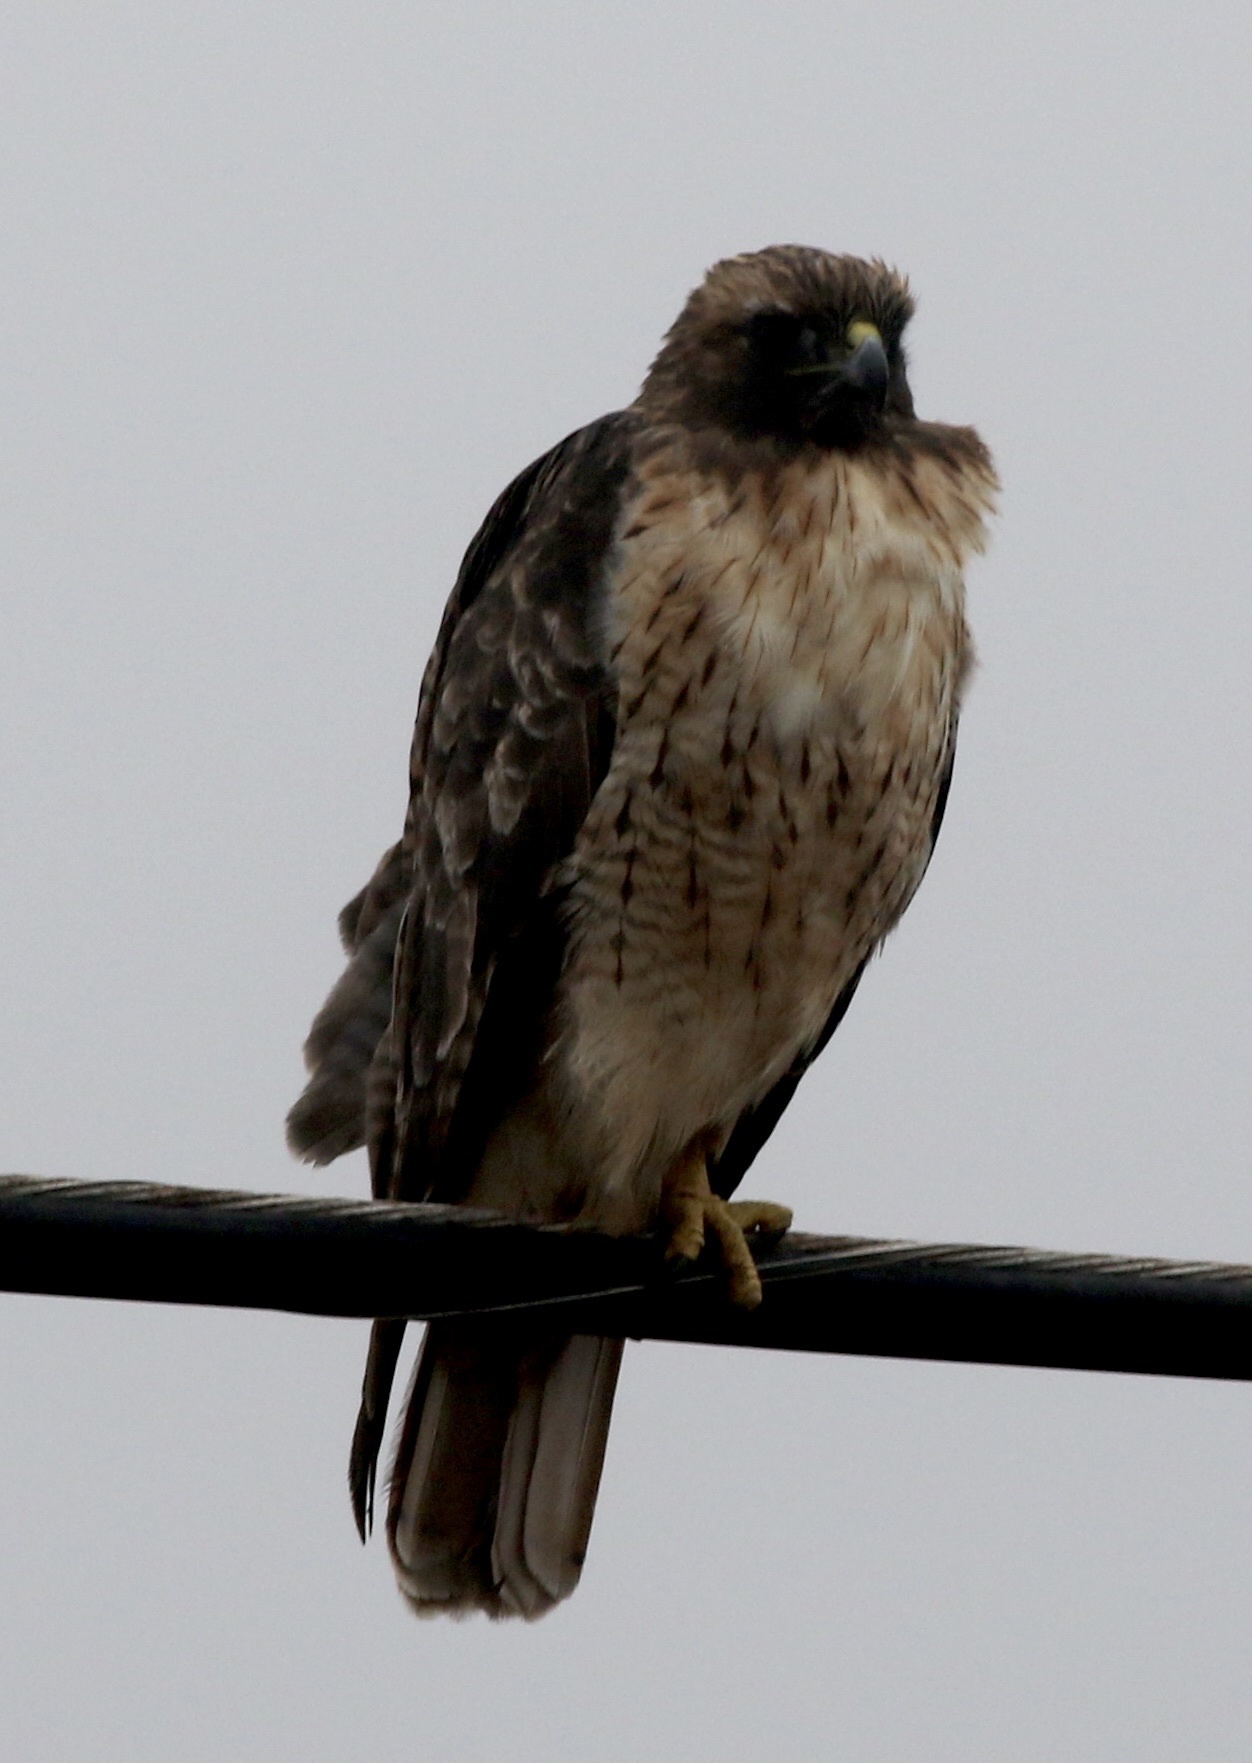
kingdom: Animalia
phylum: Chordata
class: Aves
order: Accipitriformes
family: Accipitridae
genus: Buteo
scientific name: Buteo jamaicensis
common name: Red-tailed hawk
